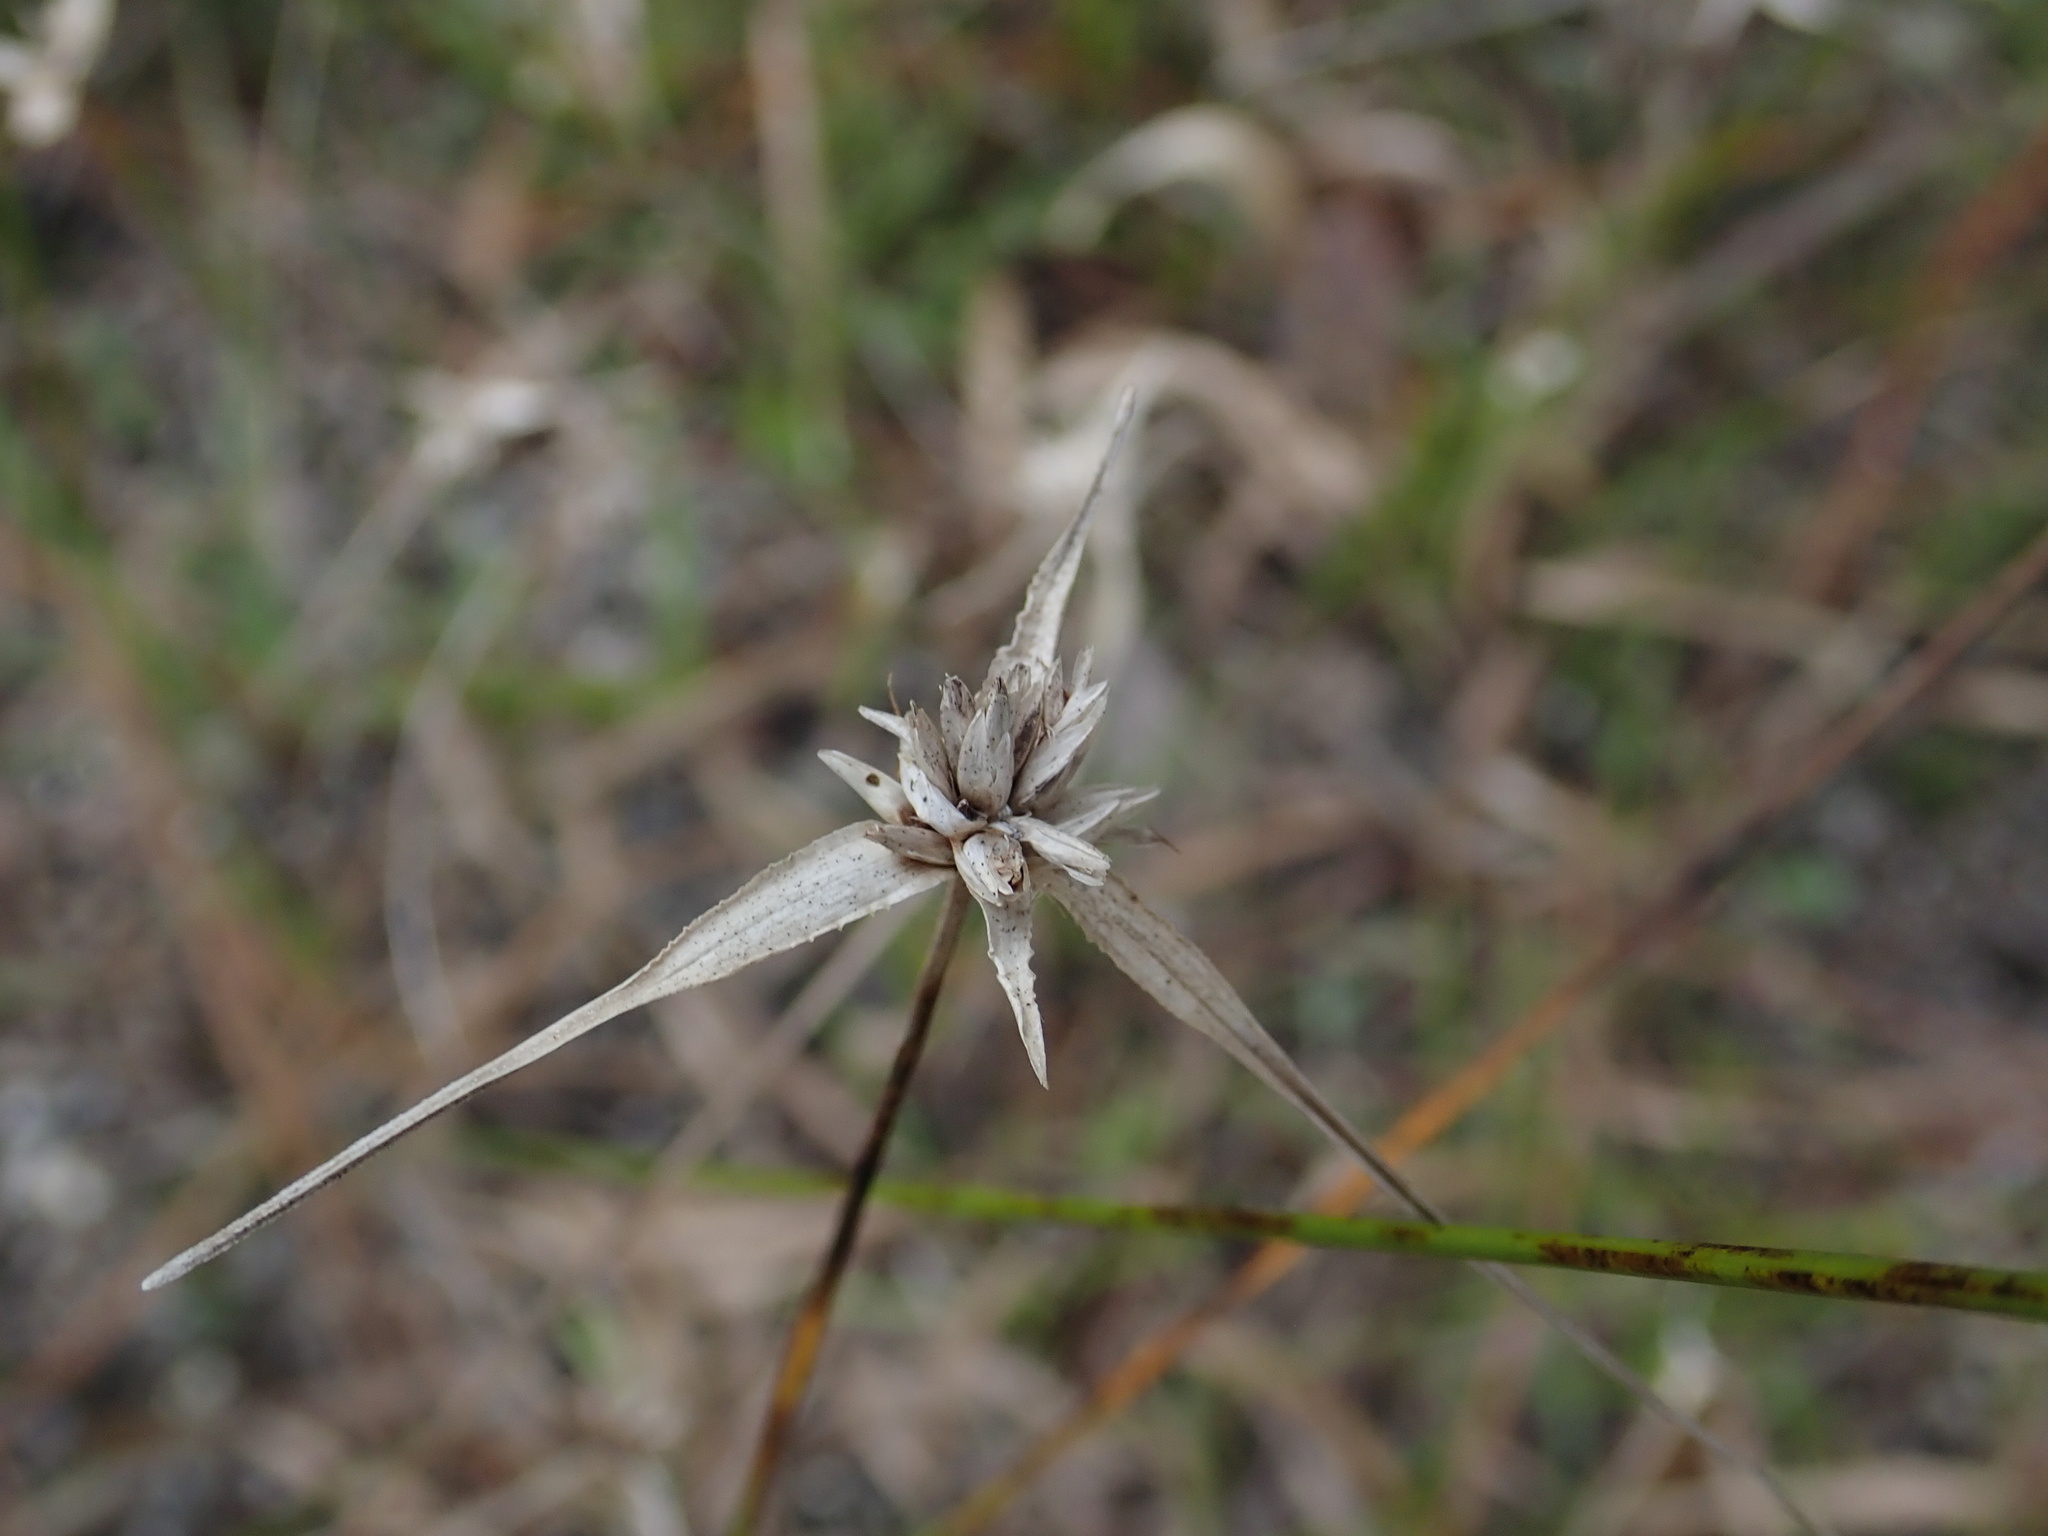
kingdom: Plantae
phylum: Tracheophyta
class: Liliopsida
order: Poales
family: Cyperaceae
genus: Rhynchospora
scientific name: Rhynchospora colorata
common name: Star sedge
